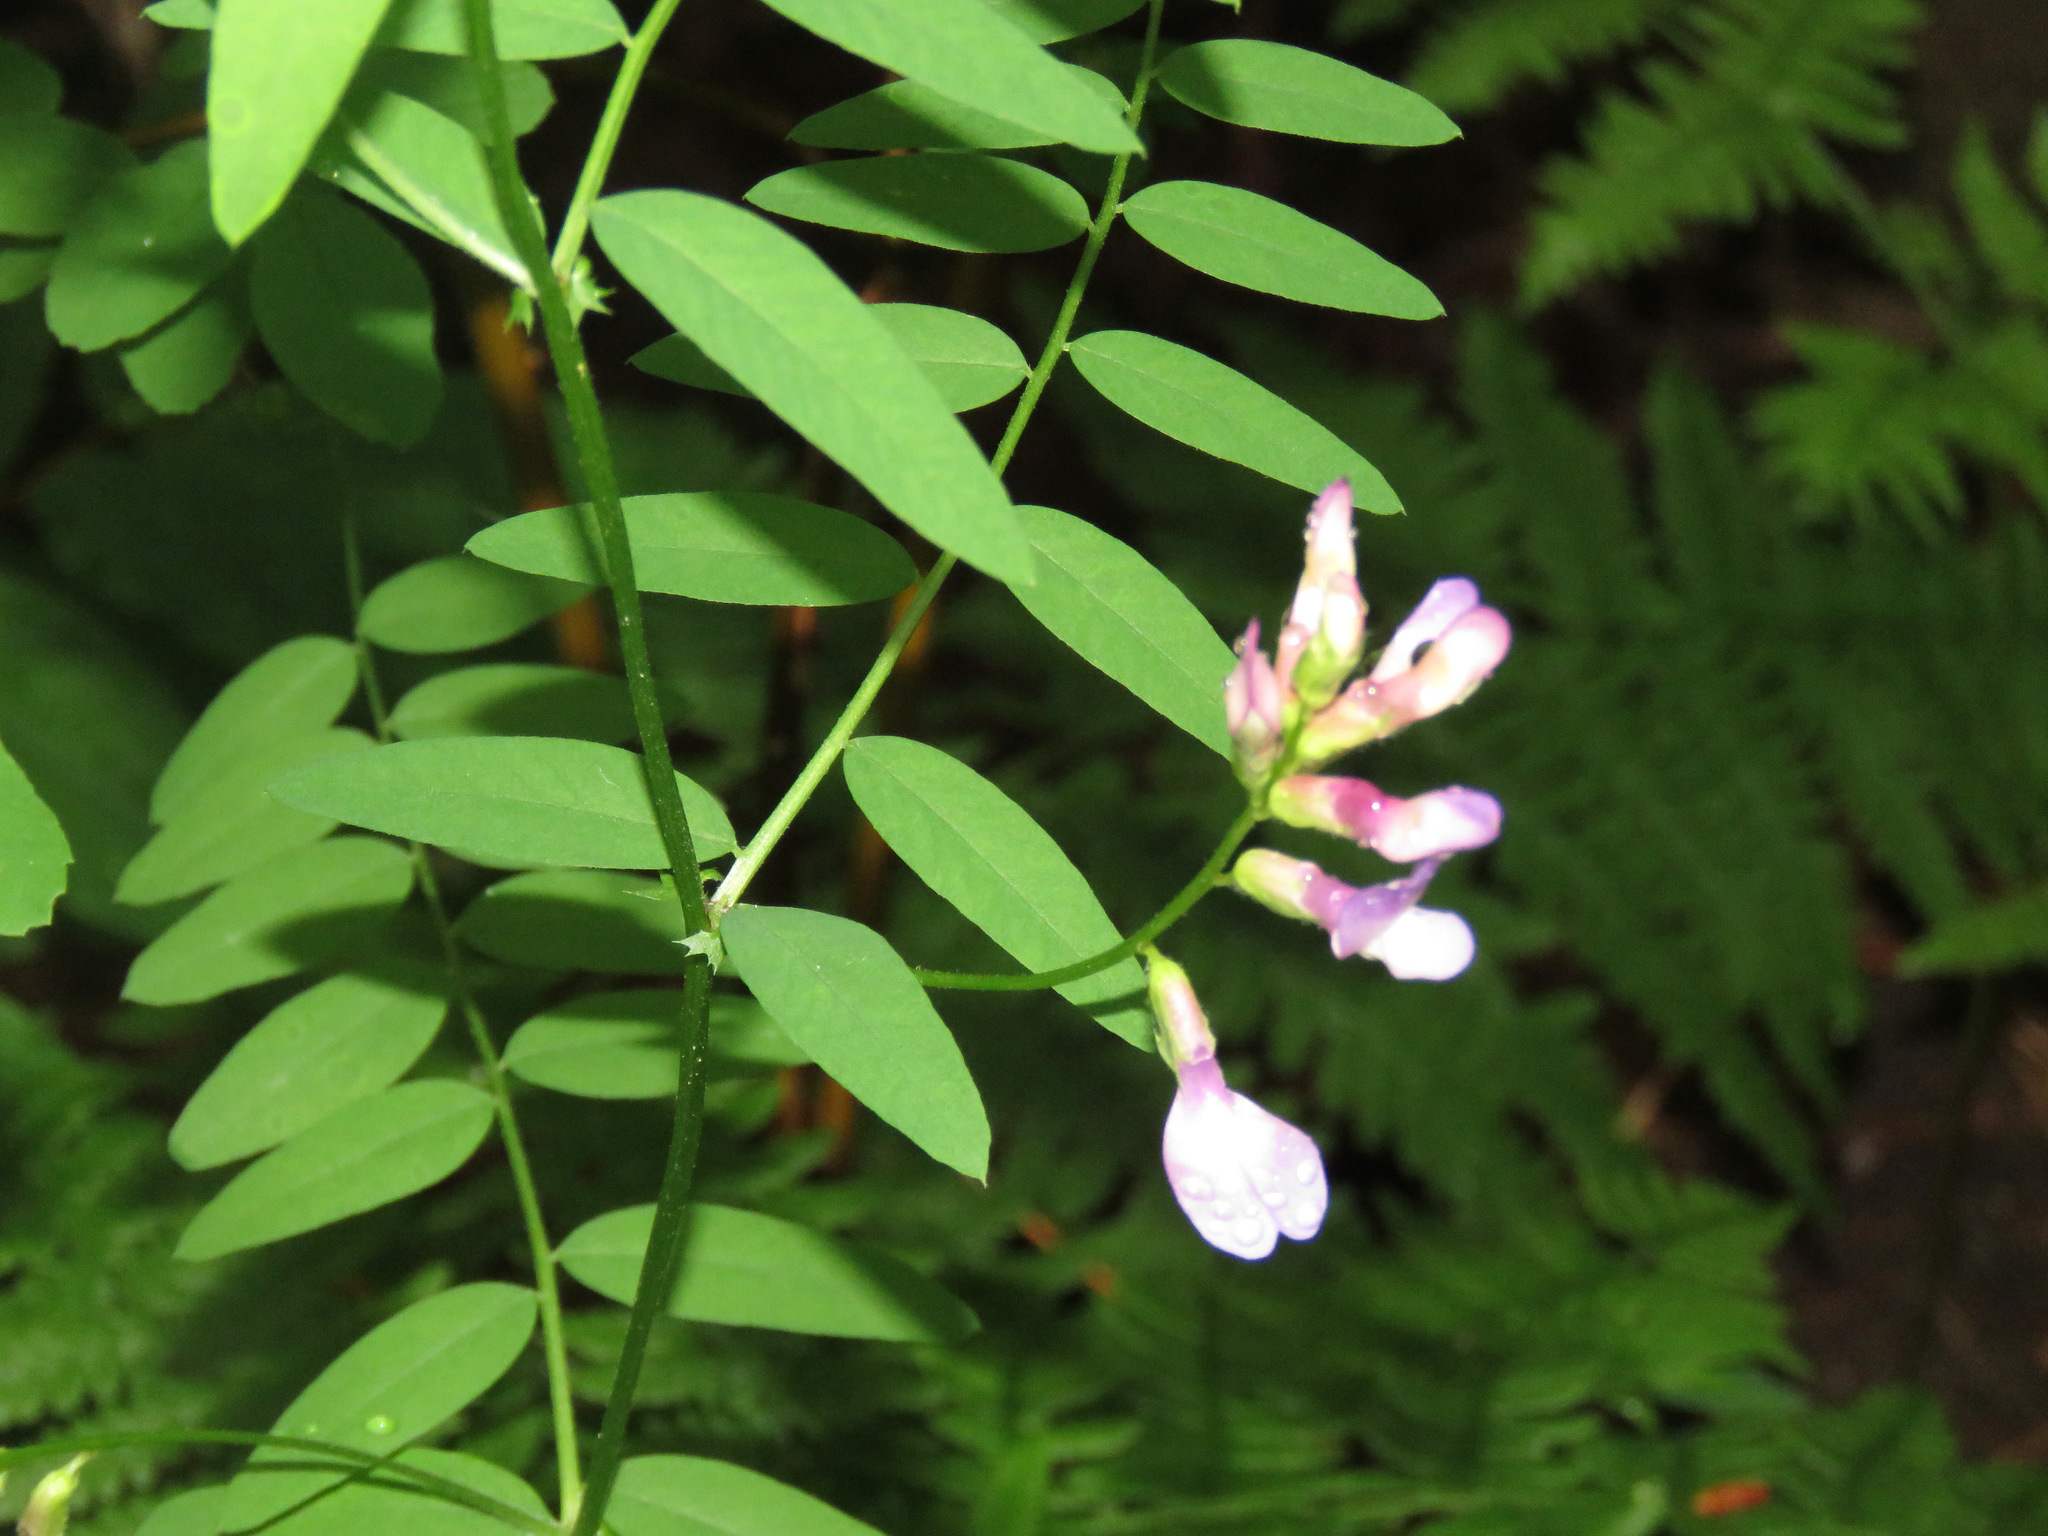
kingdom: Plantae
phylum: Tracheophyta
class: Magnoliopsida
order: Fabales
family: Fabaceae
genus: Vicia
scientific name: Vicia americana
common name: American vetch
